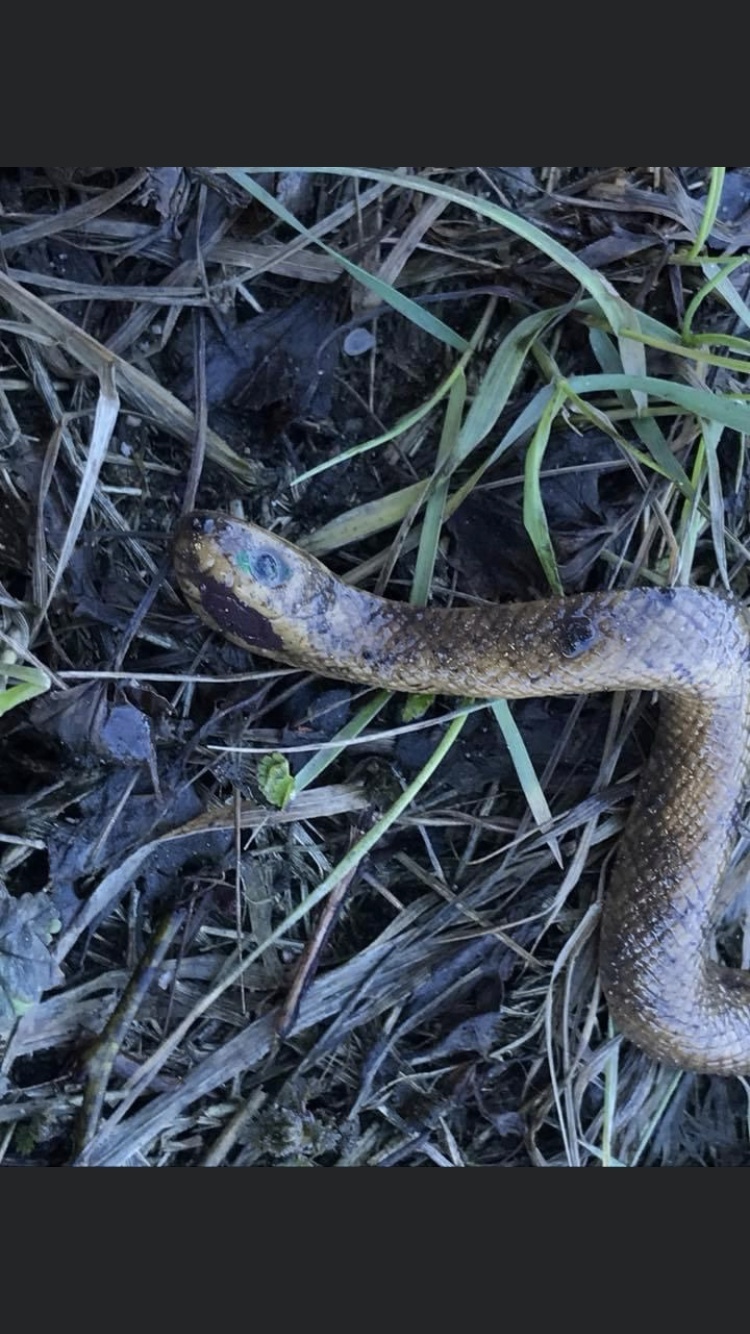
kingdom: Animalia
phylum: Chordata
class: Squamata
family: Anguidae
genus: Anguis
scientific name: Anguis fragilis
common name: Slow worm
